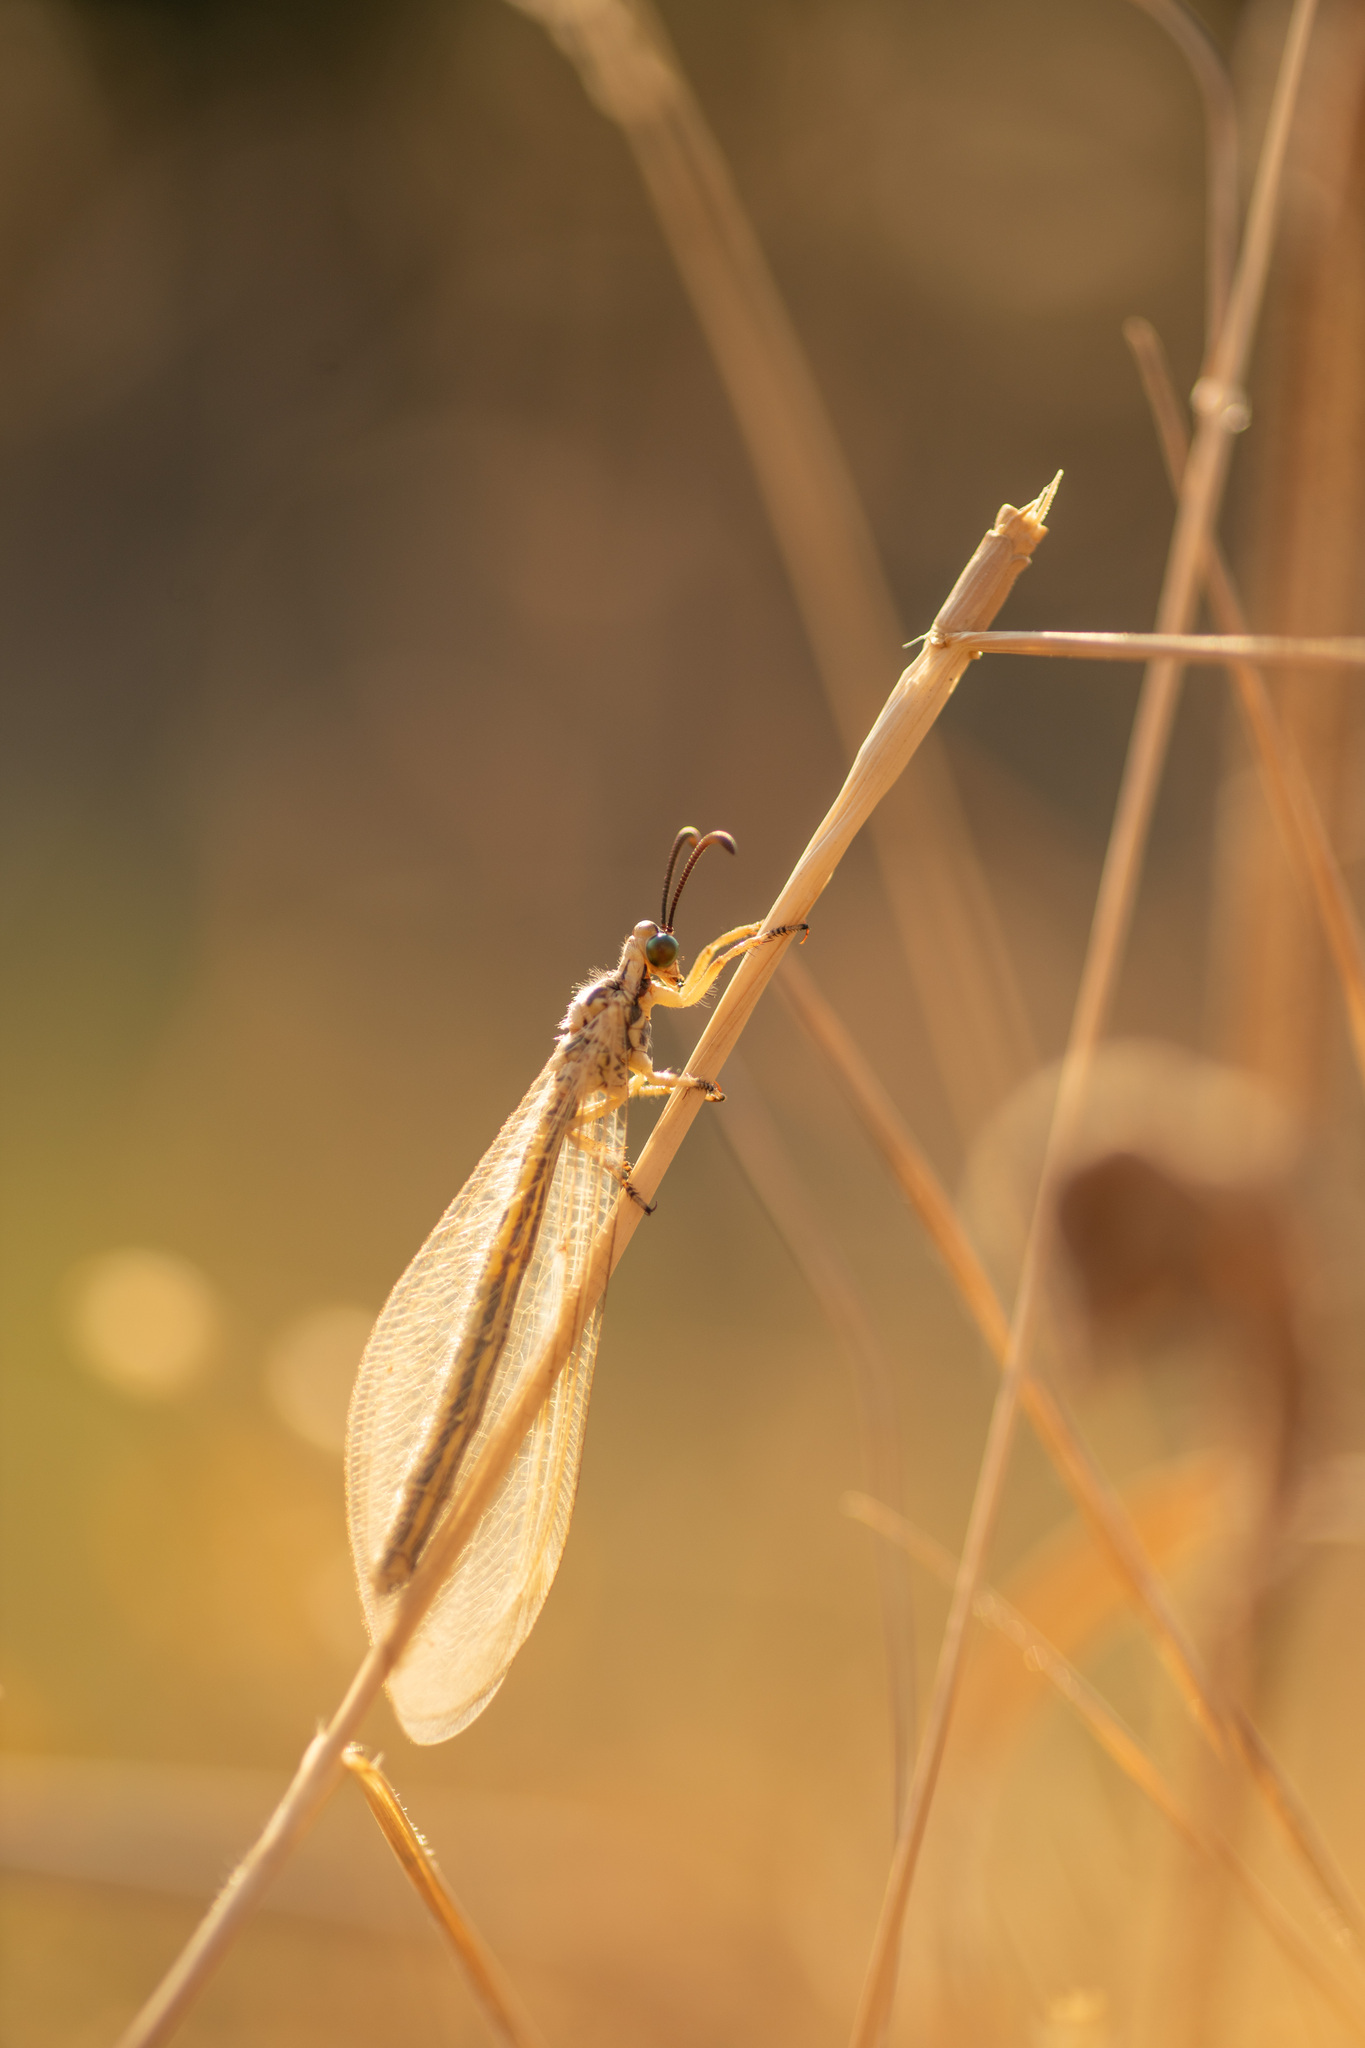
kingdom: Animalia
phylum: Arthropoda
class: Insecta
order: Neuroptera
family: Myrmeleontidae
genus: Myrmecaelurus
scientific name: Myrmecaelurus trigrammus
